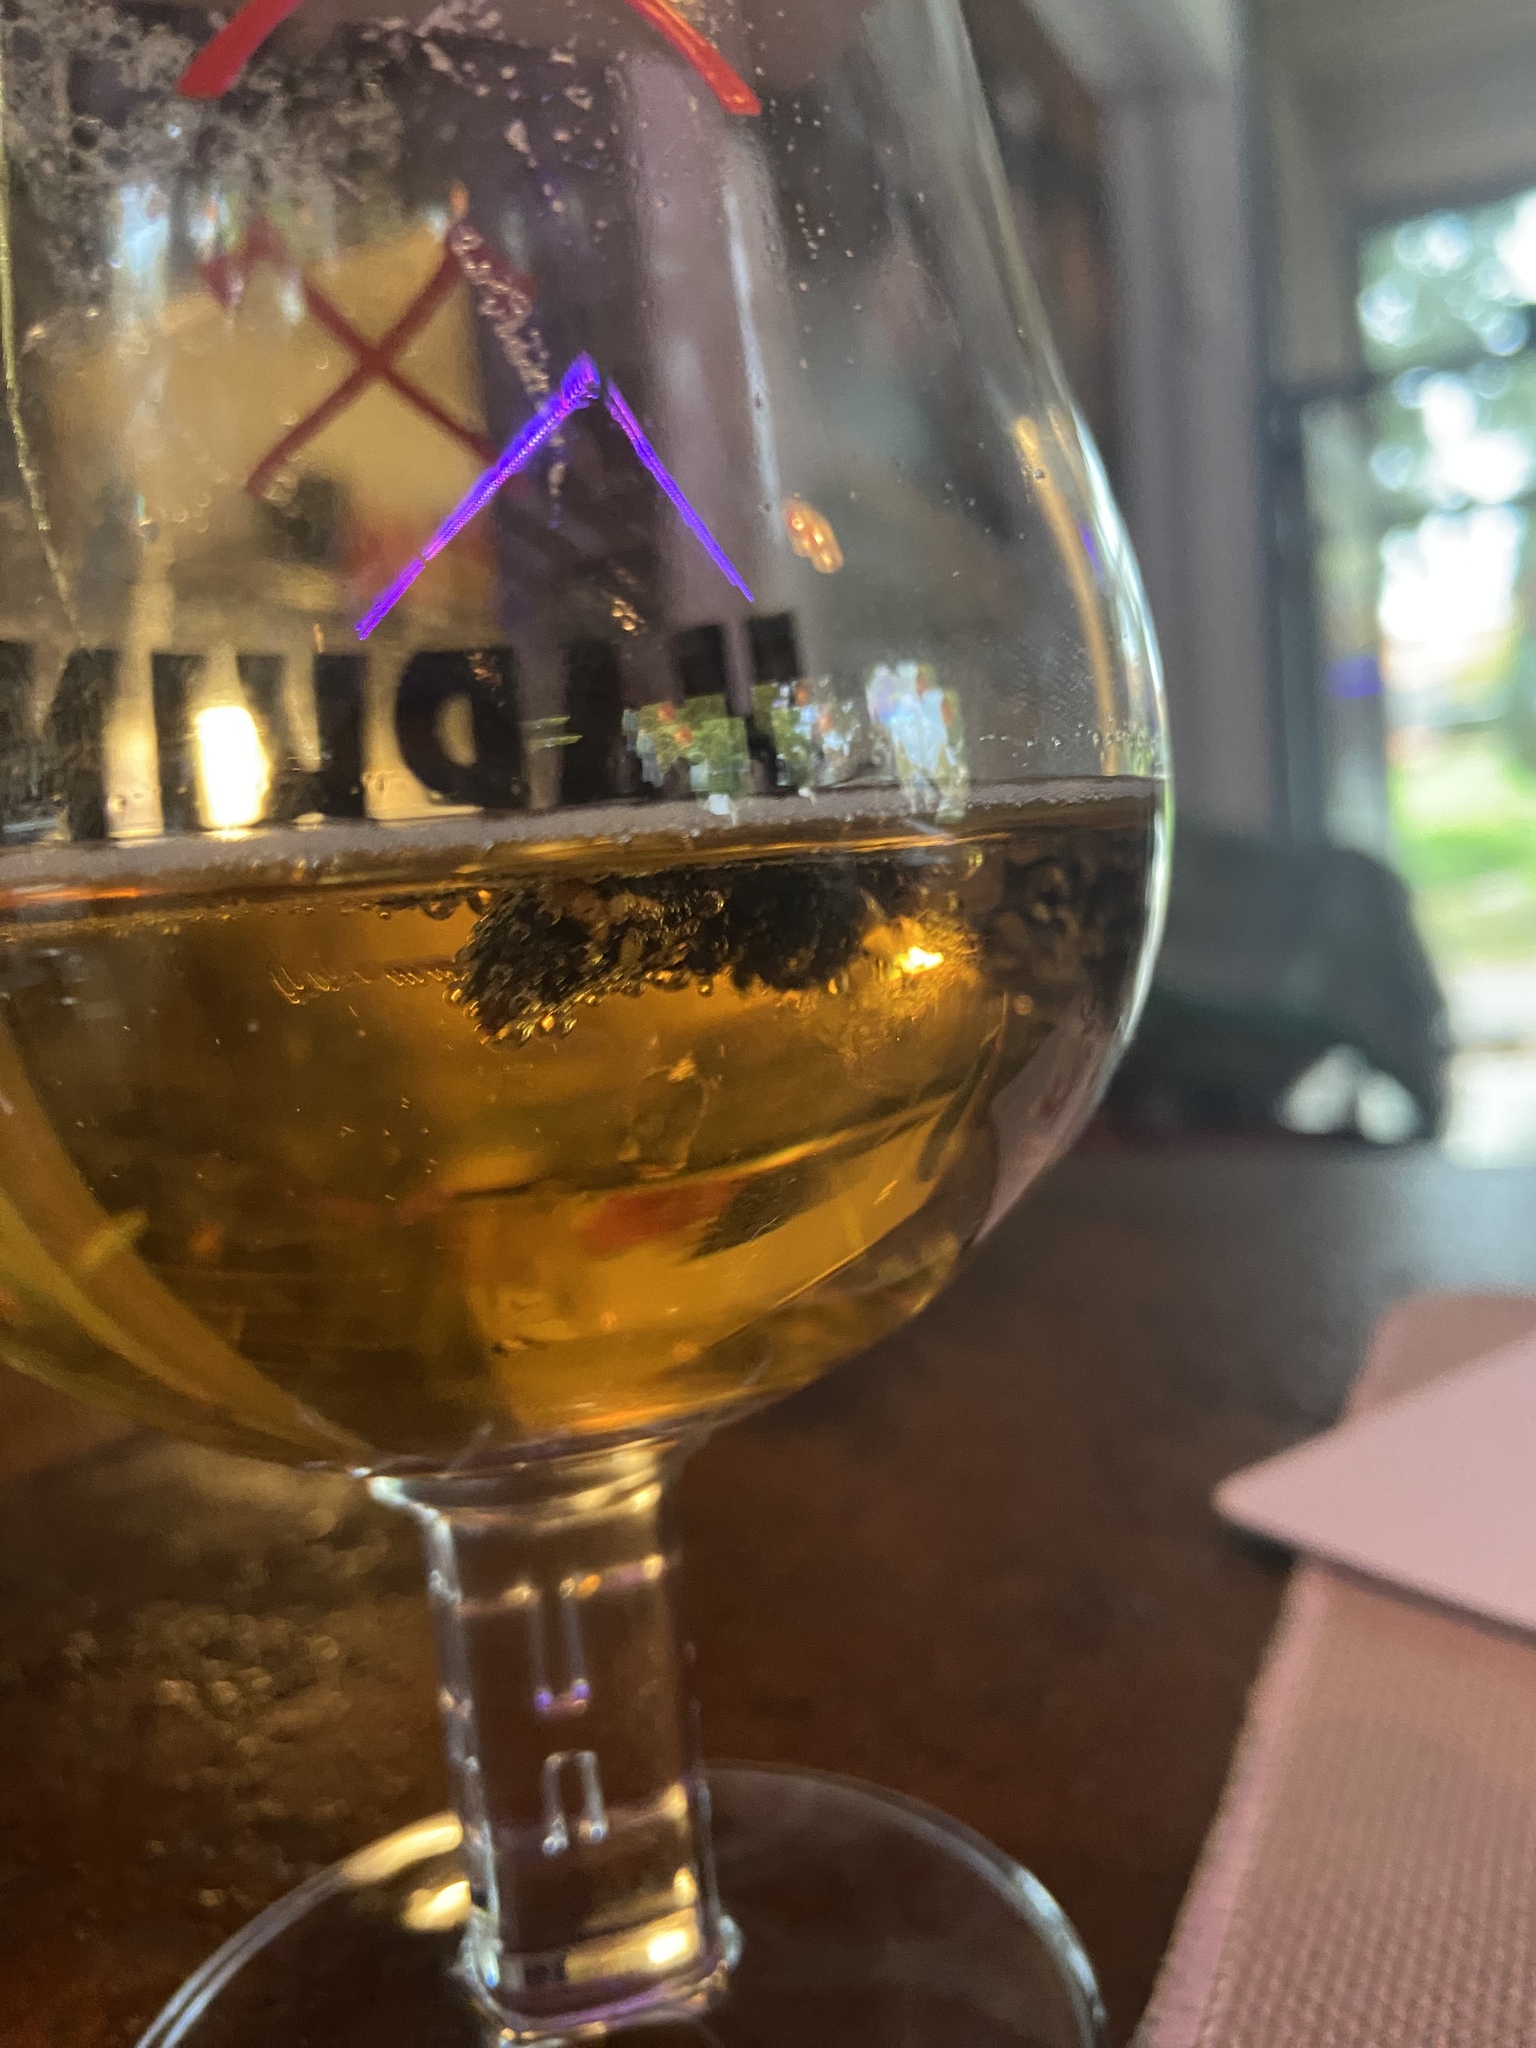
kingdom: Animalia
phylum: Arthropoda
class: Insecta
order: Hymenoptera
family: Vespidae
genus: Vespa
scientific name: Vespa velutina
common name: Asian hornet
